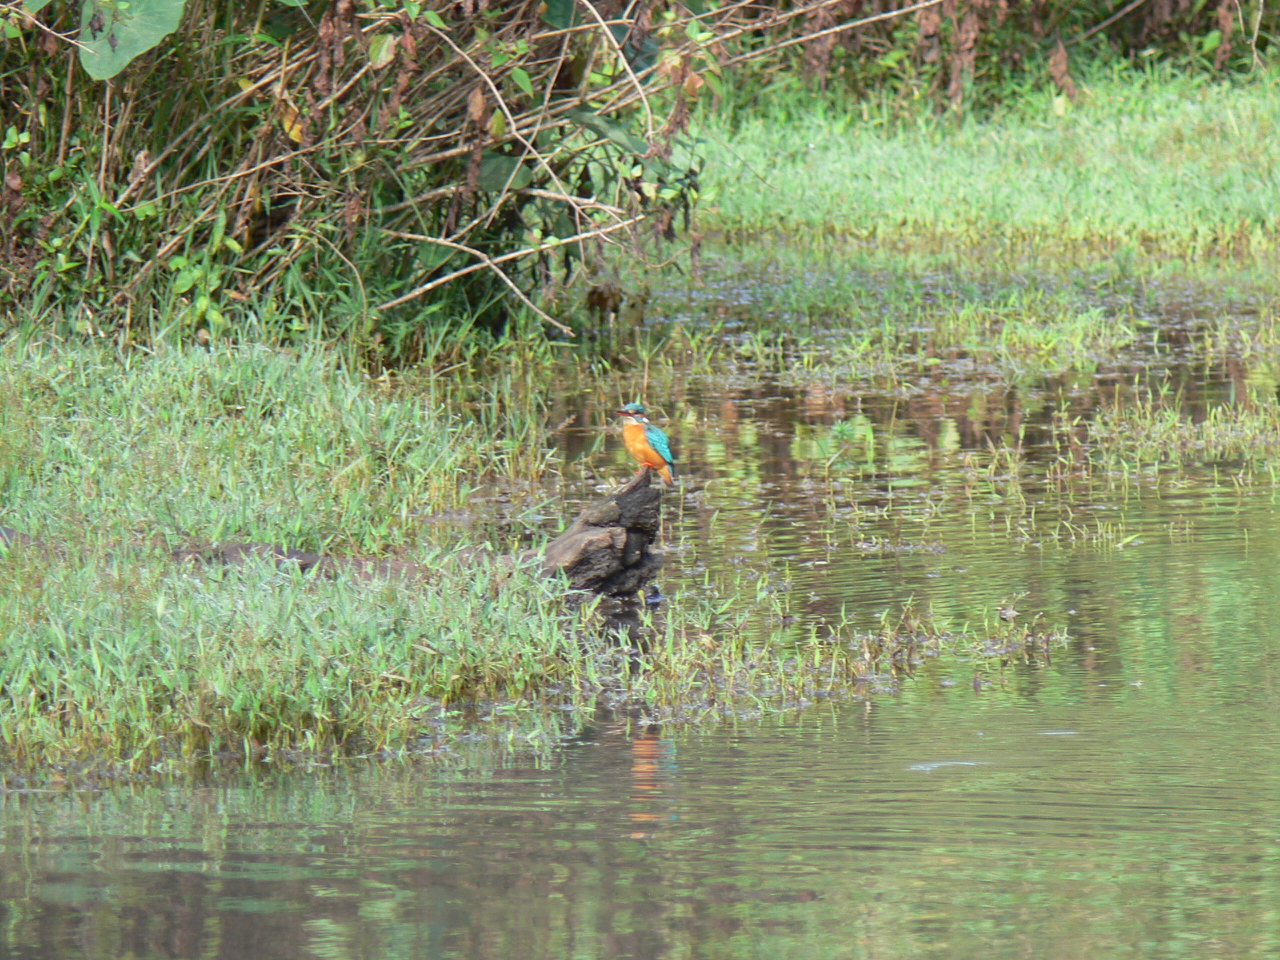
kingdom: Animalia
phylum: Chordata
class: Aves
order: Coraciiformes
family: Alcedinidae
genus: Alcedo
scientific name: Alcedo atthis
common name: Common kingfisher
